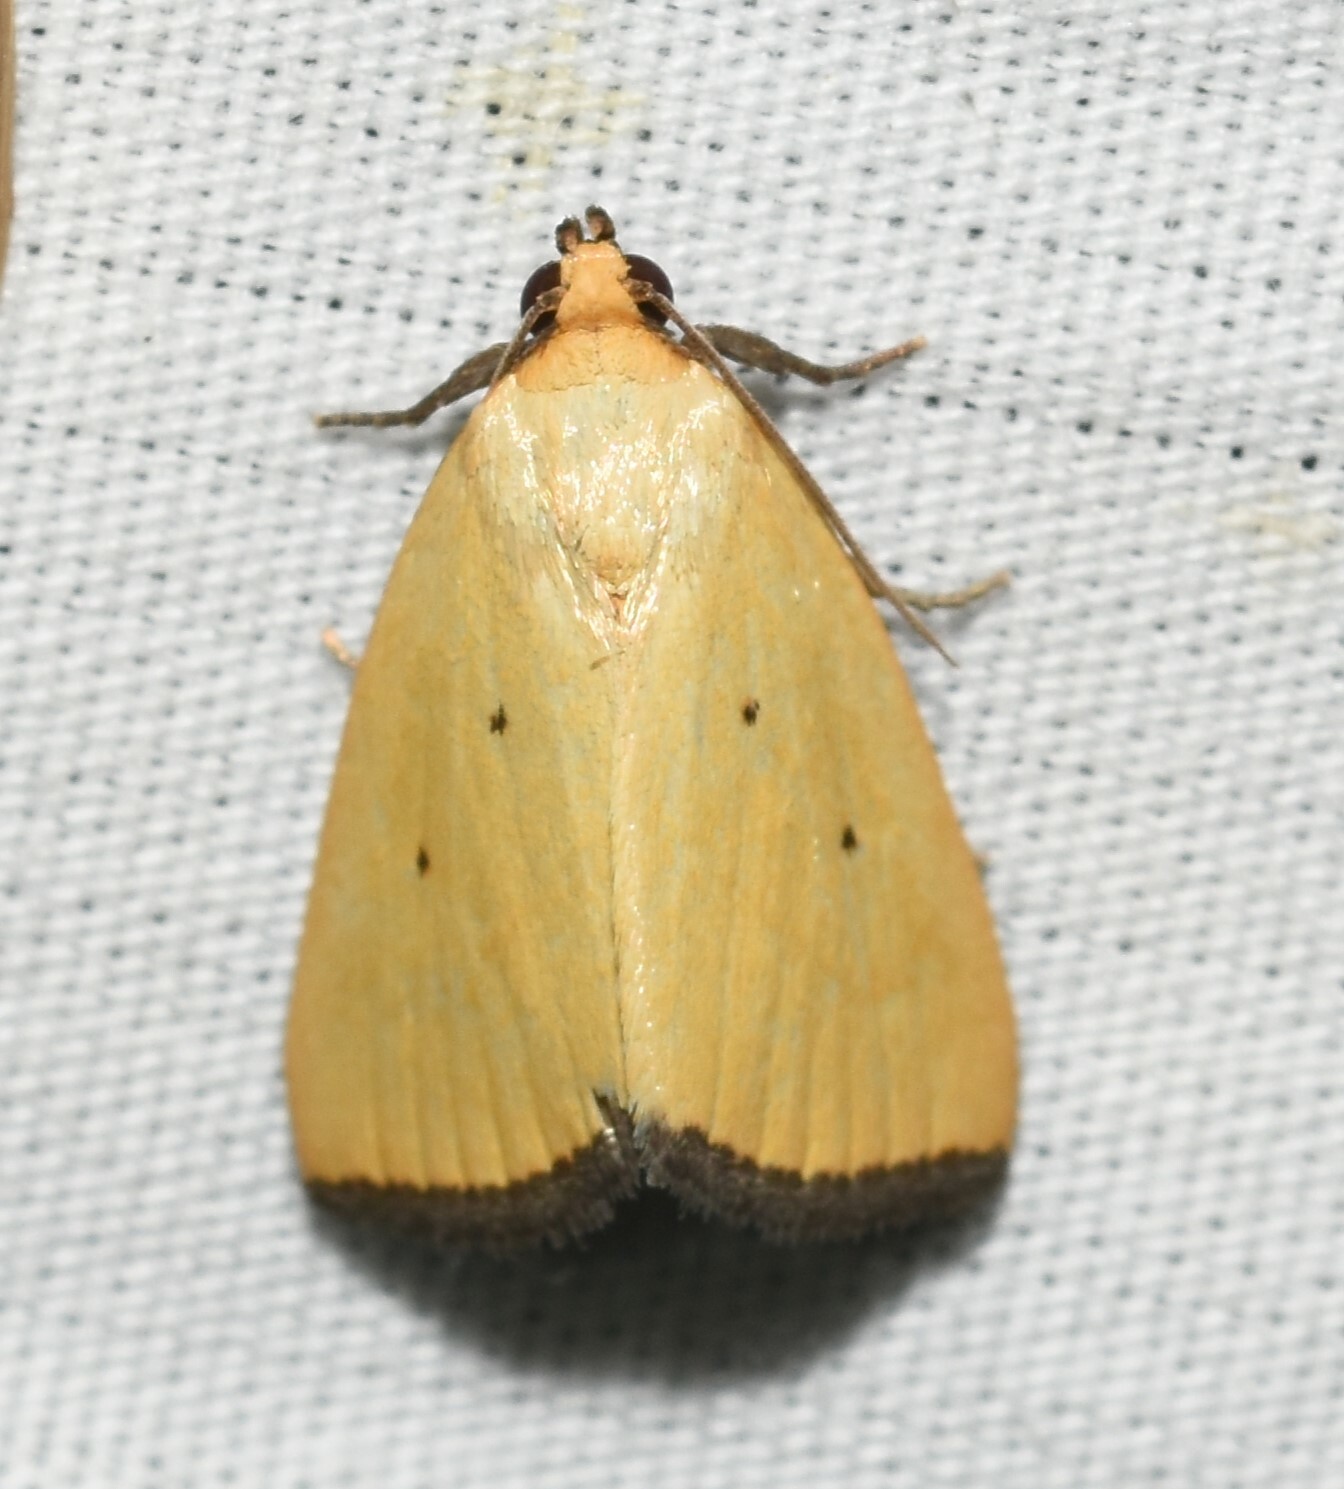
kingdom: Animalia
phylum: Arthropoda
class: Insecta
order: Lepidoptera
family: Noctuidae
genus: Marimatha
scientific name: Marimatha nigrofimbria
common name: Black-bordered lemon moth
